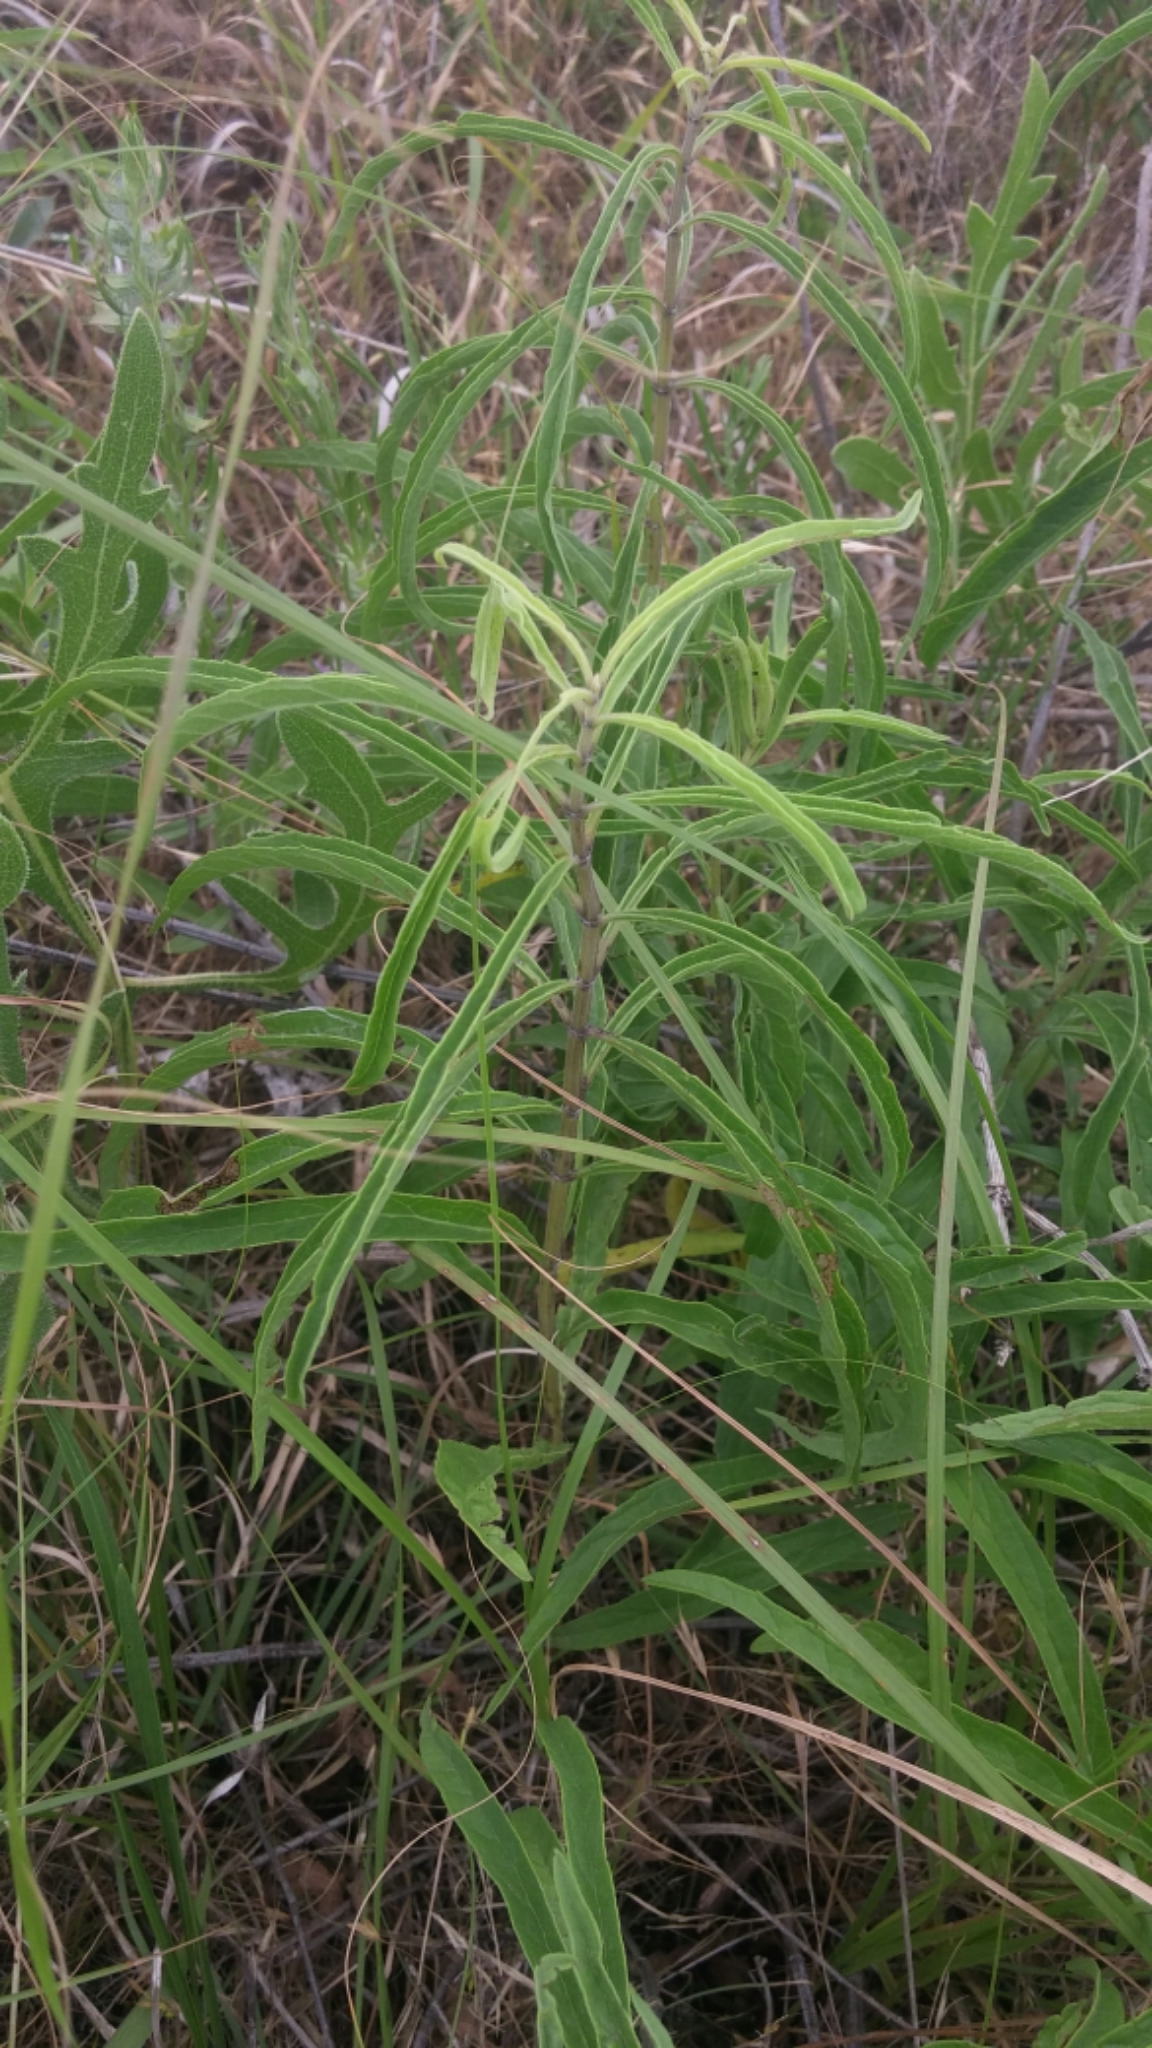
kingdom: Plantae
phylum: Tracheophyta
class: Magnoliopsida
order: Asterales
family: Asteraceae
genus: Helianthus
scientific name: Helianthus maximiliani
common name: Maximilian's sunflower
